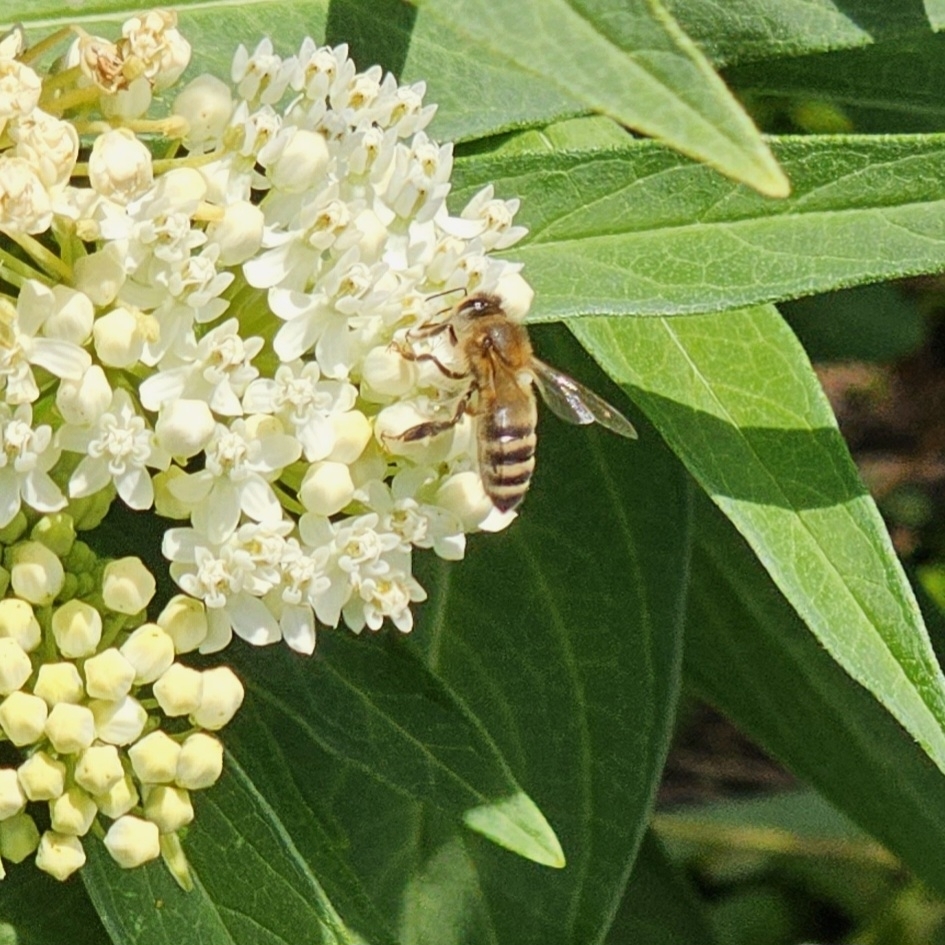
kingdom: Animalia
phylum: Arthropoda
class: Insecta
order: Hymenoptera
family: Apidae
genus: Apis
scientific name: Apis mellifera
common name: Honey bee
